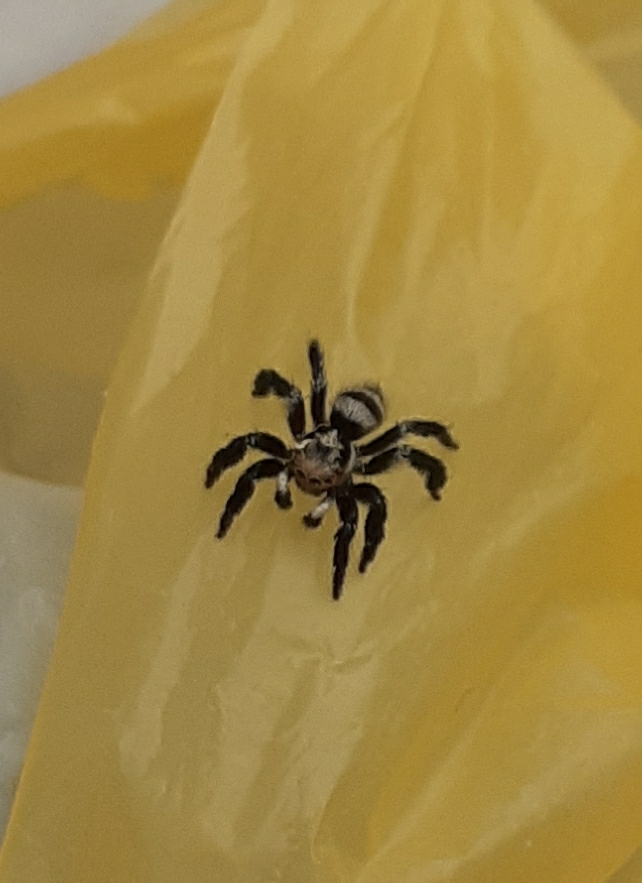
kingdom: Animalia
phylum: Arthropoda
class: Arachnida
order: Araneae
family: Salticidae
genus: Corythalia
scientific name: Corythalia argentinensis
